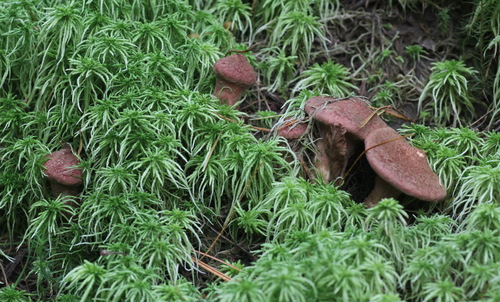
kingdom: Fungi
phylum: Basidiomycota
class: Agaricomycetes
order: Boletales
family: Suillaceae
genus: Suillus
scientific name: Suillus spraguei
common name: Painted suillus
